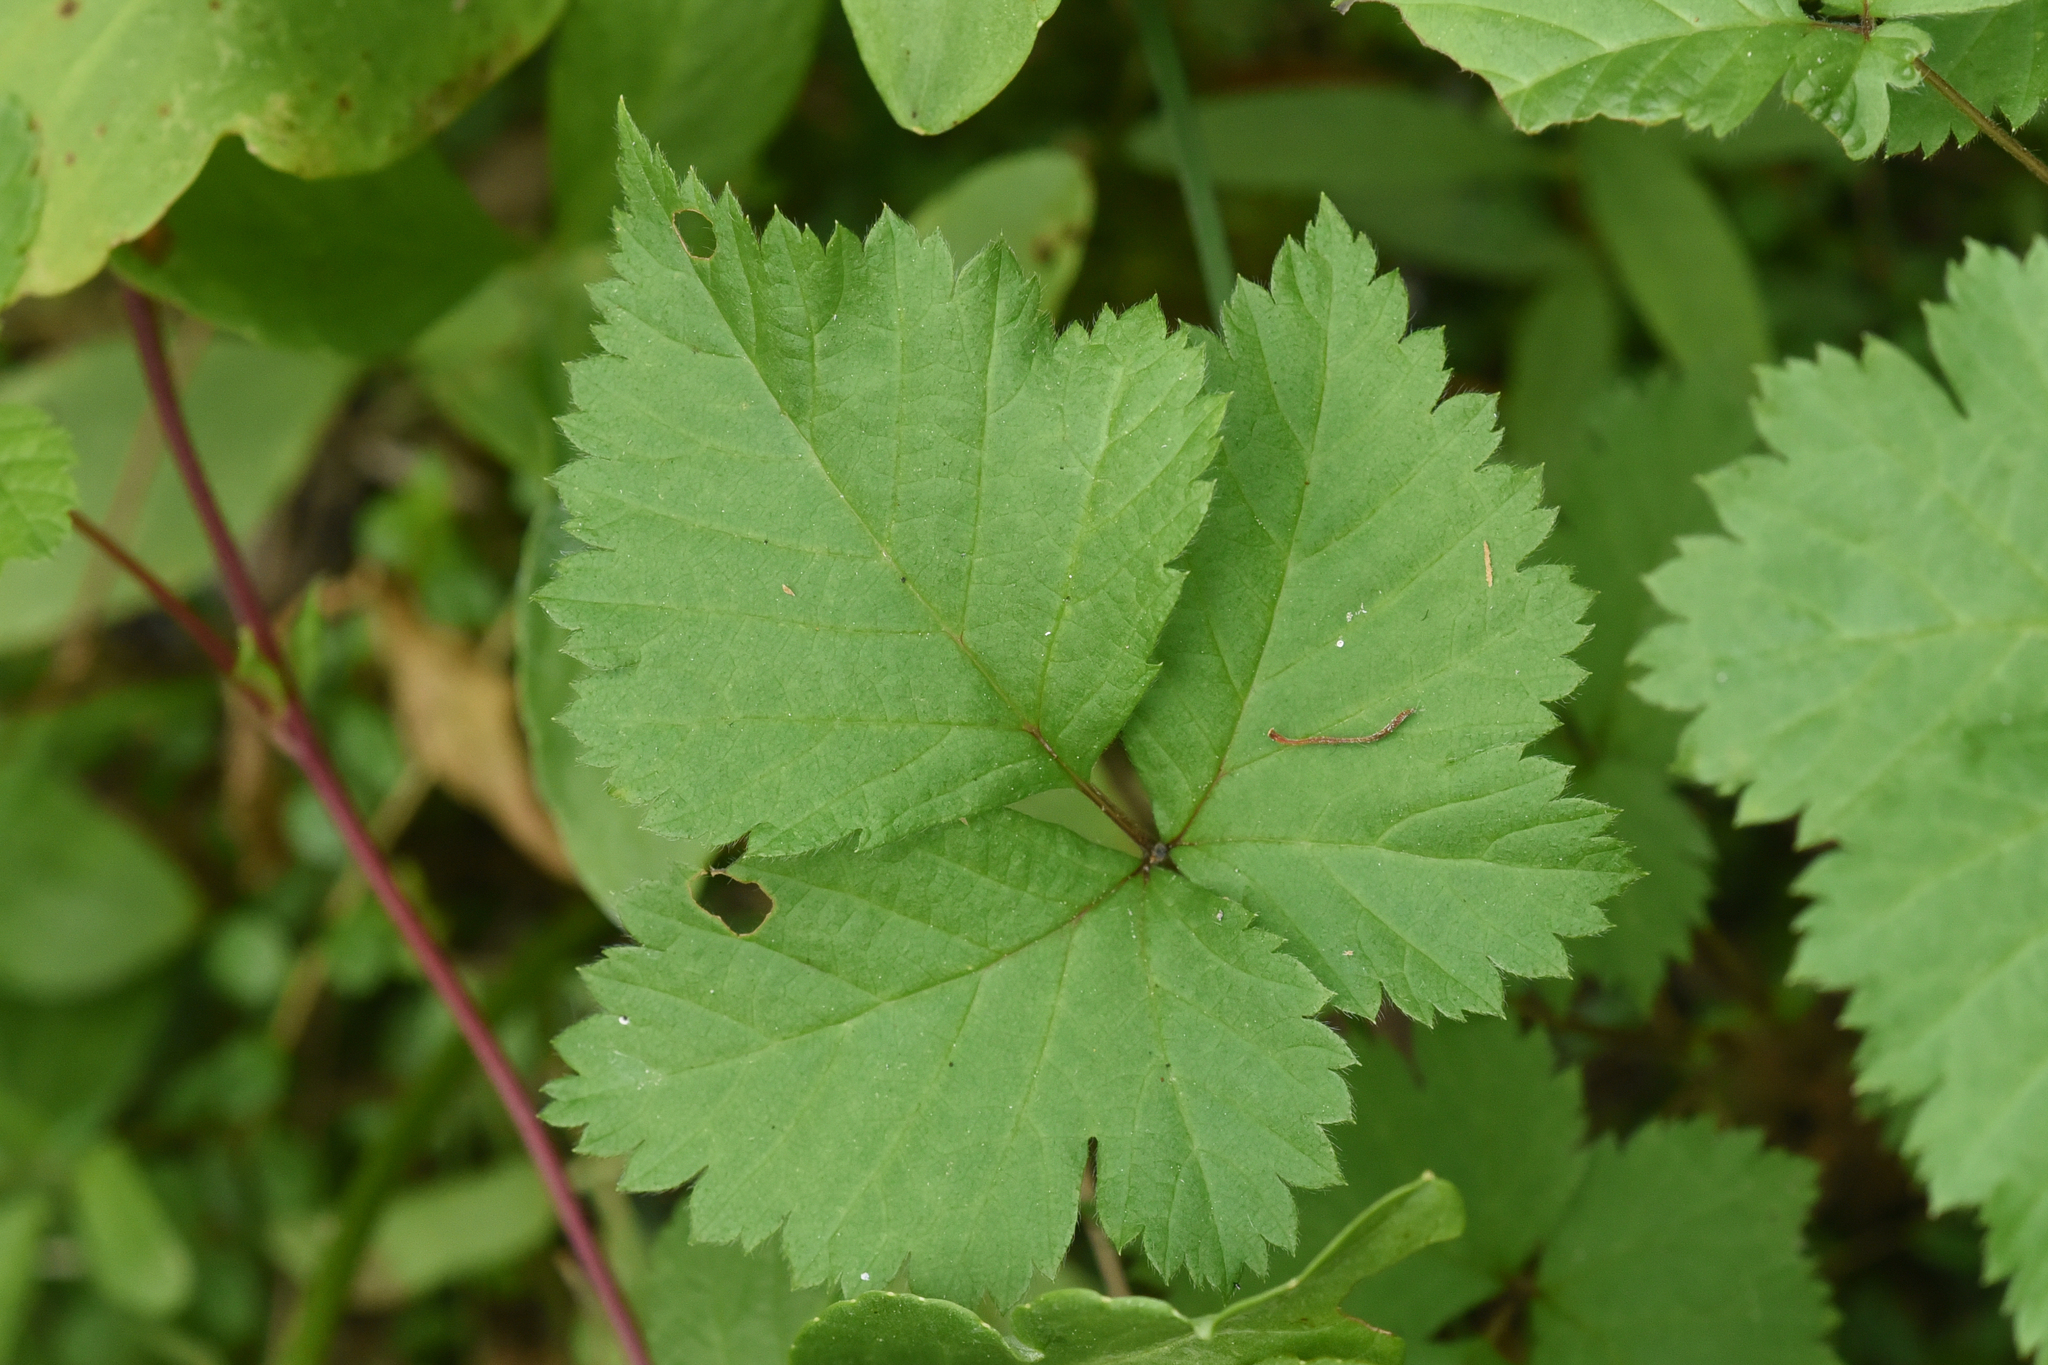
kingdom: Plantae
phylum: Tracheophyta
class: Magnoliopsida
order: Rosales
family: Rosaceae
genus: Rubus
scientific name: Rubus pubescens
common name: Dwarf raspberry
